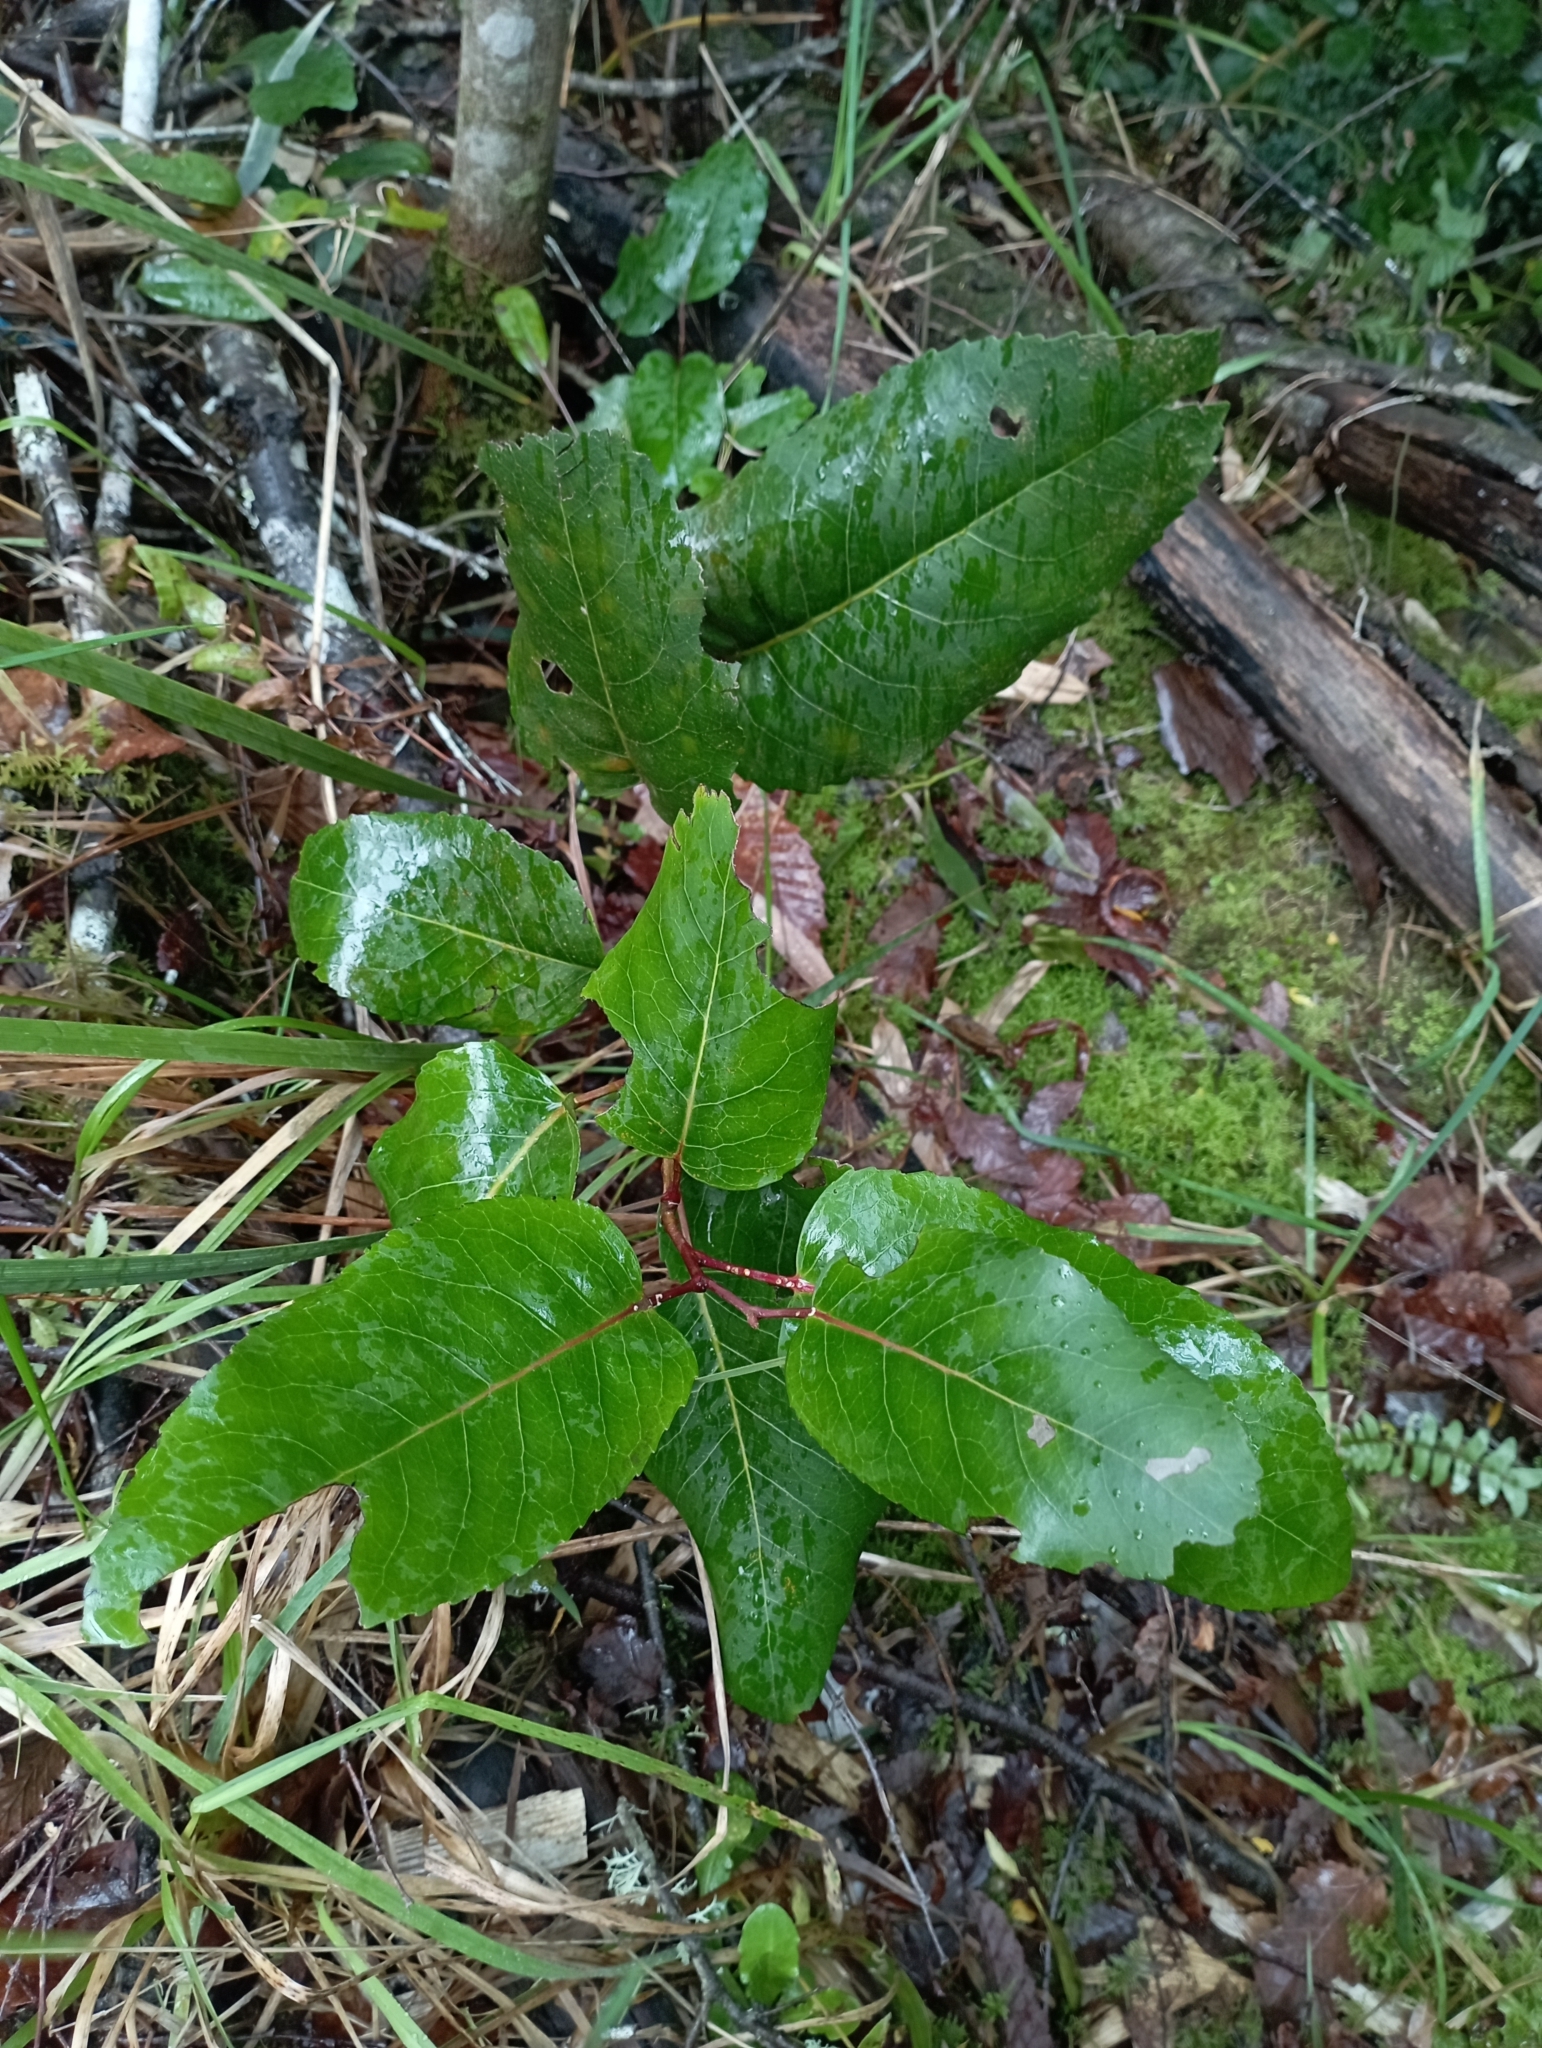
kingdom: Plantae
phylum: Tracheophyta
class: Magnoliopsida
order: Proteales
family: Proteaceae
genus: Lomatia
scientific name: Lomatia hirsuta
